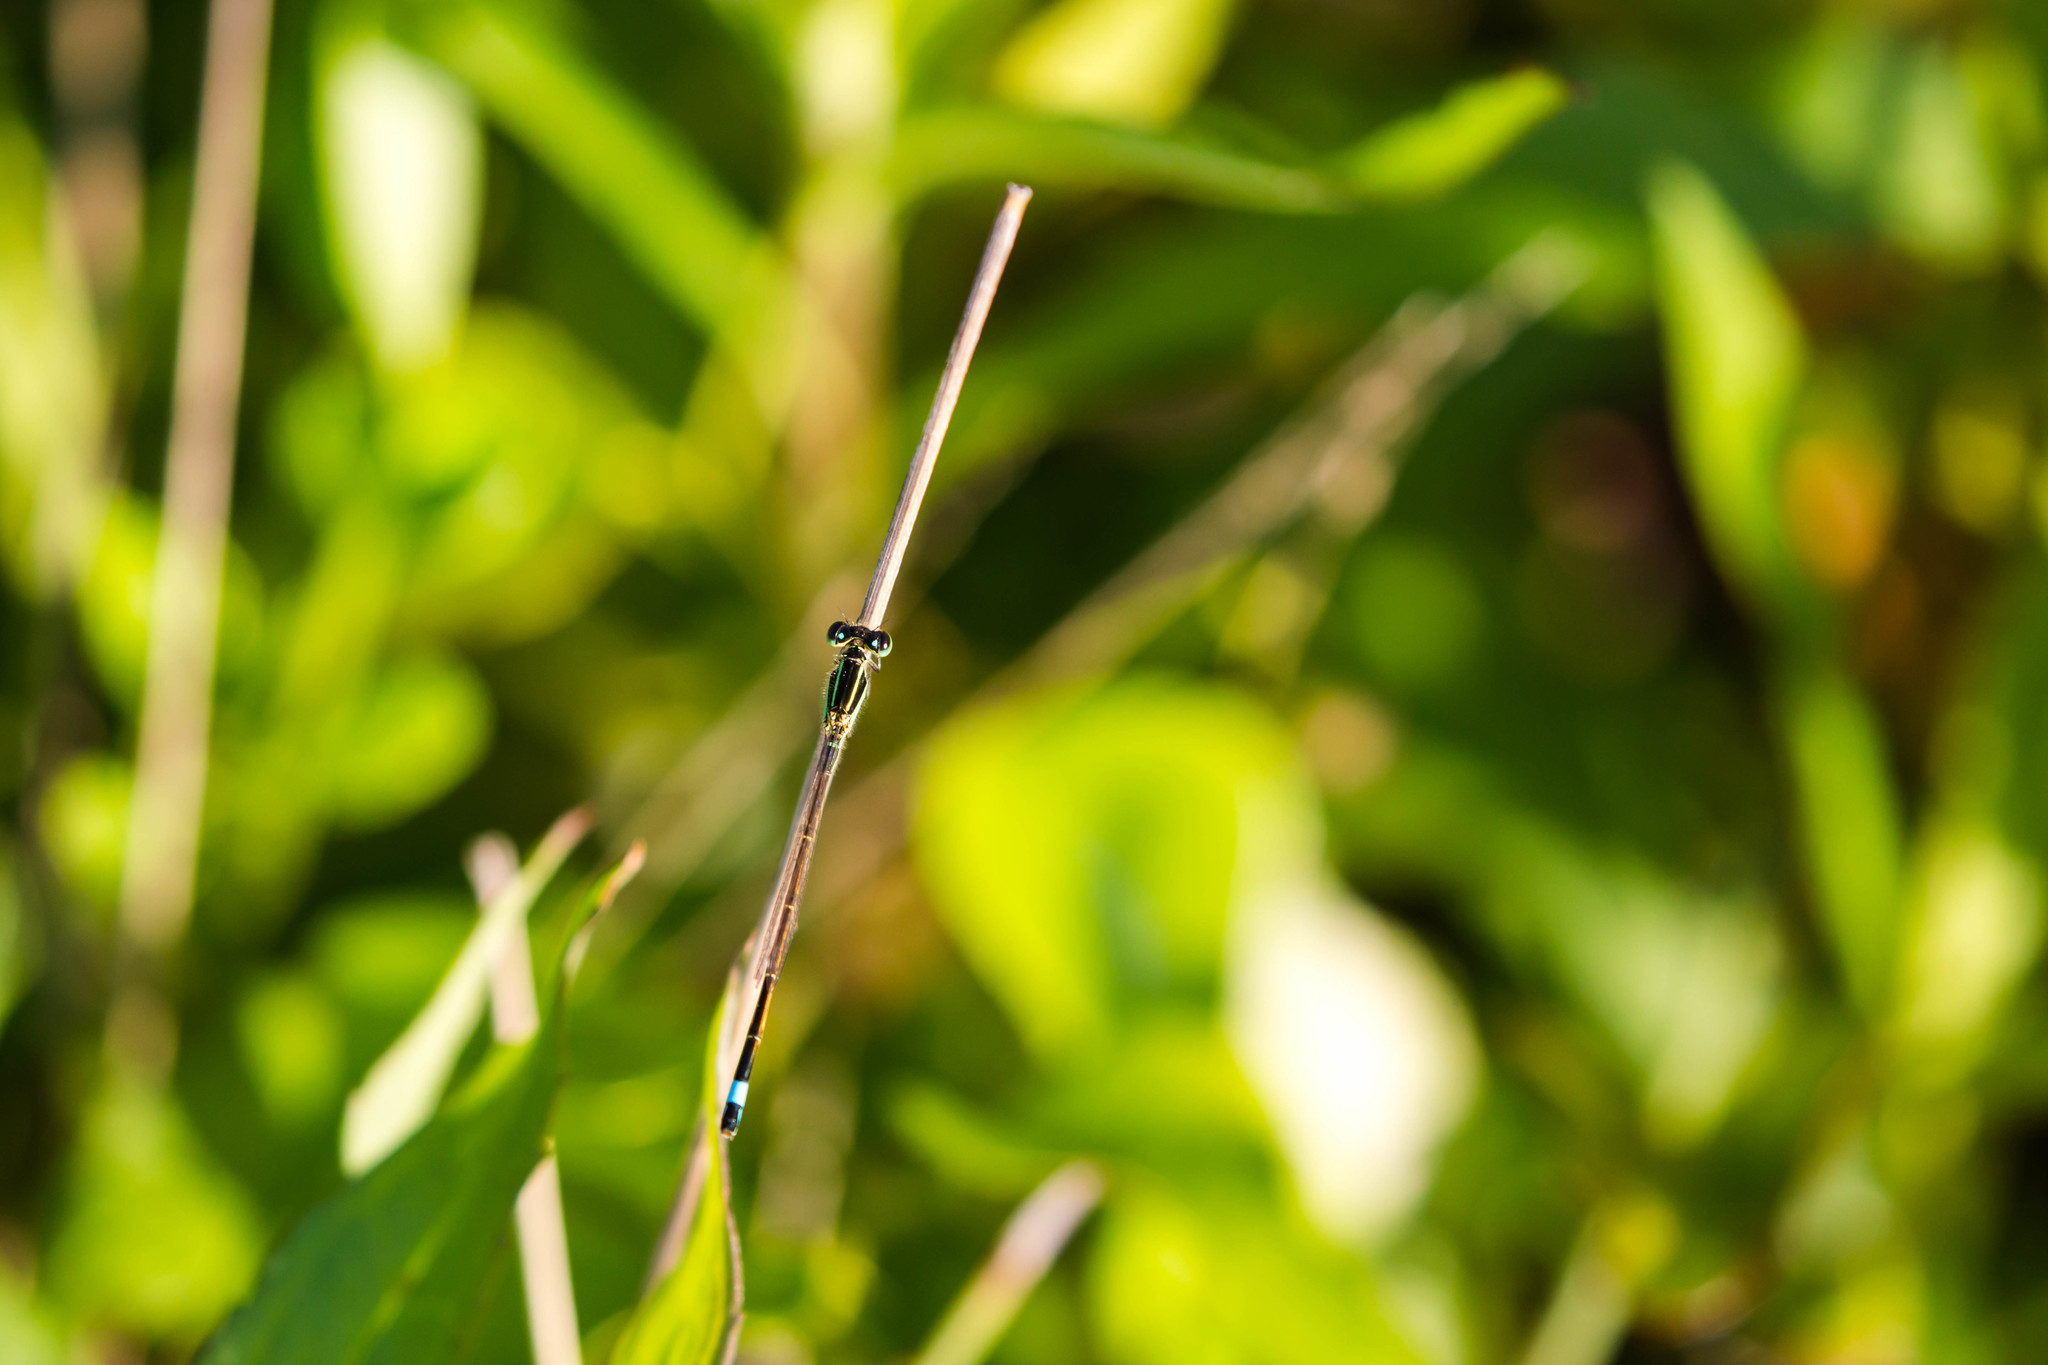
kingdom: Animalia
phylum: Arthropoda
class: Insecta
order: Odonata
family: Coenagrionidae
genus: Ischnura
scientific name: Ischnura ramburii
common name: Rambur's forktail
